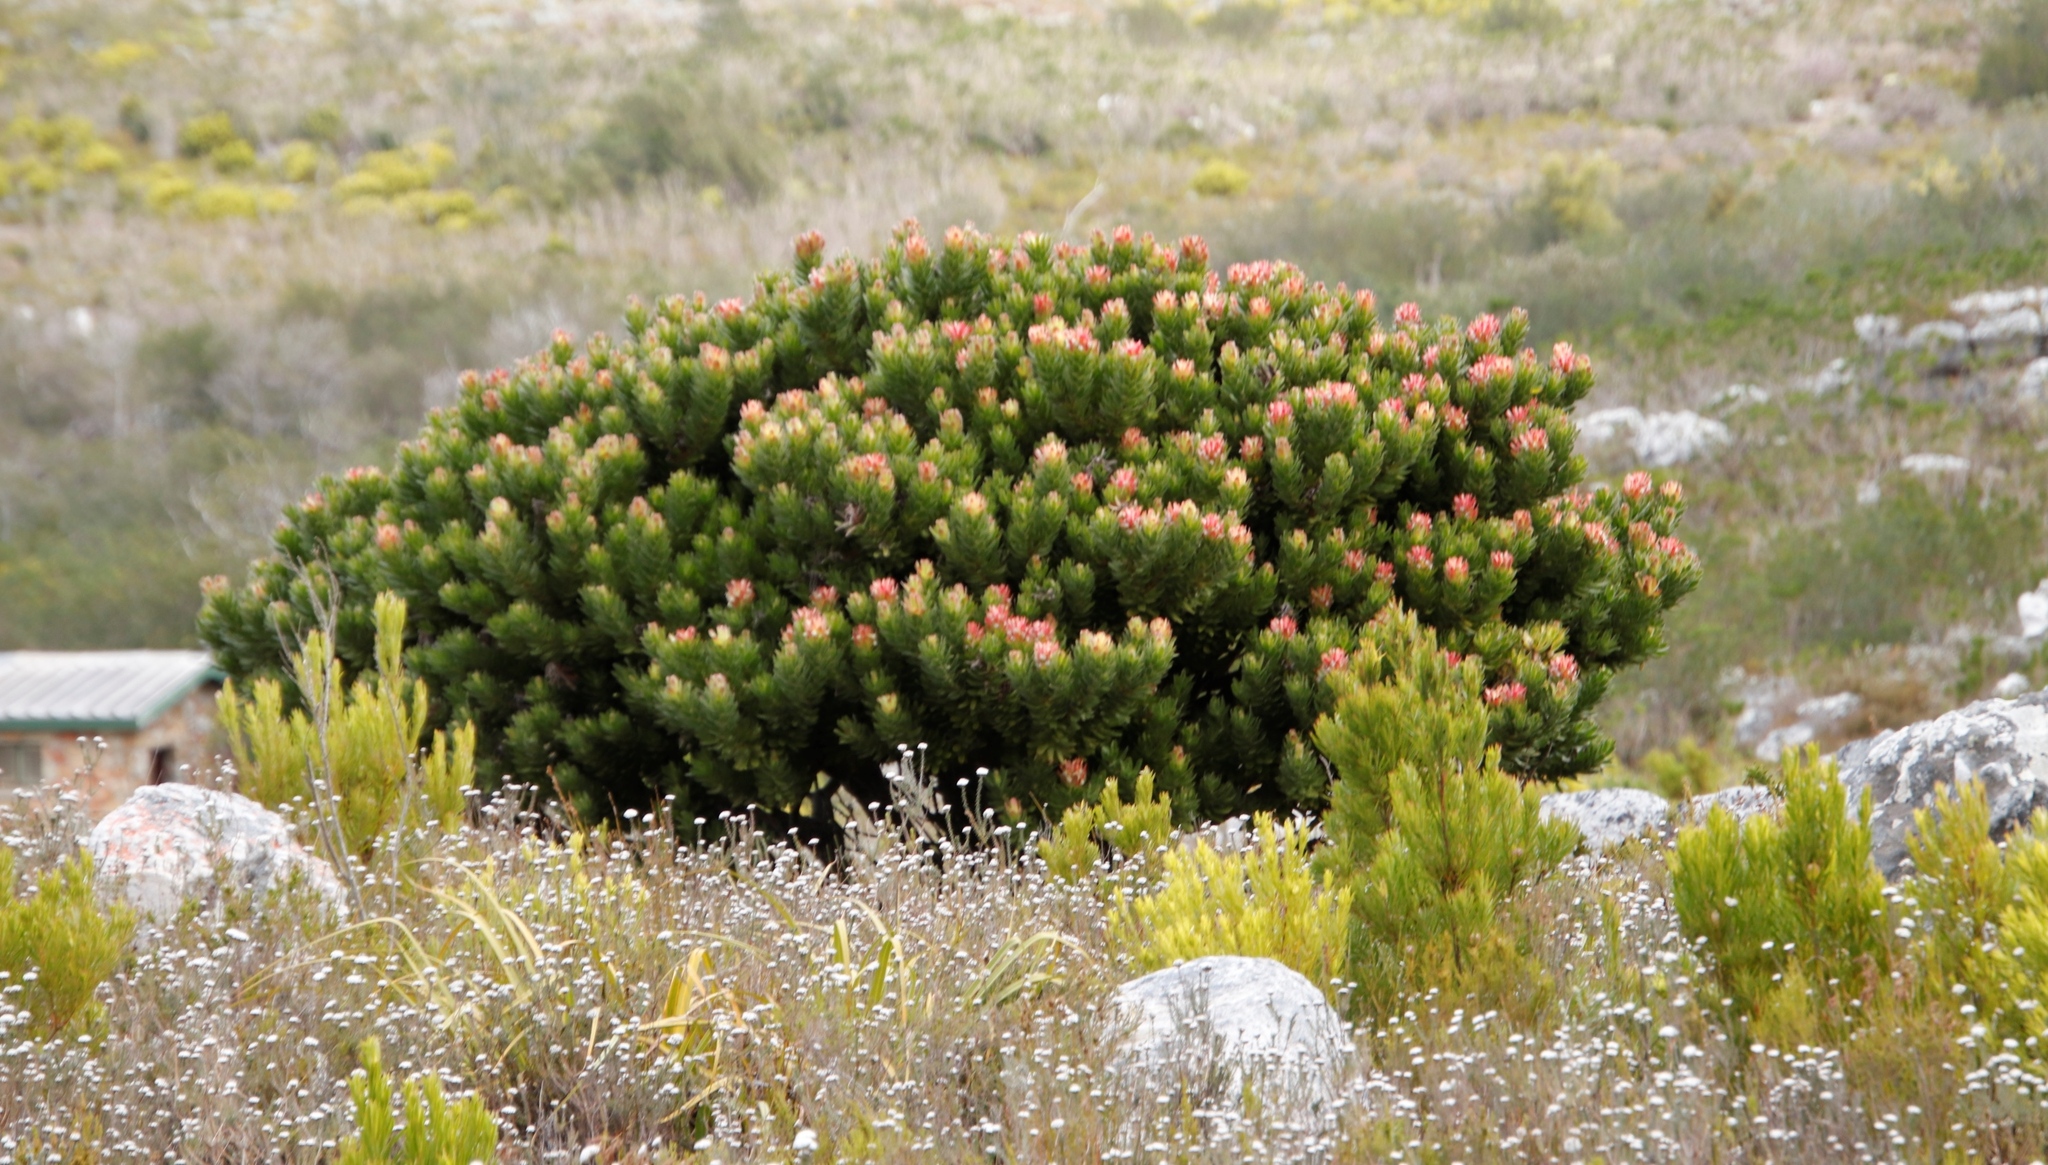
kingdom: Plantae
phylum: Tracheophyta
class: Magnoliopsida
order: Proteales
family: Proteaceae
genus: Mimetes
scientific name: Mimetes fimbriifolius
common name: Fringed bottlebrush
